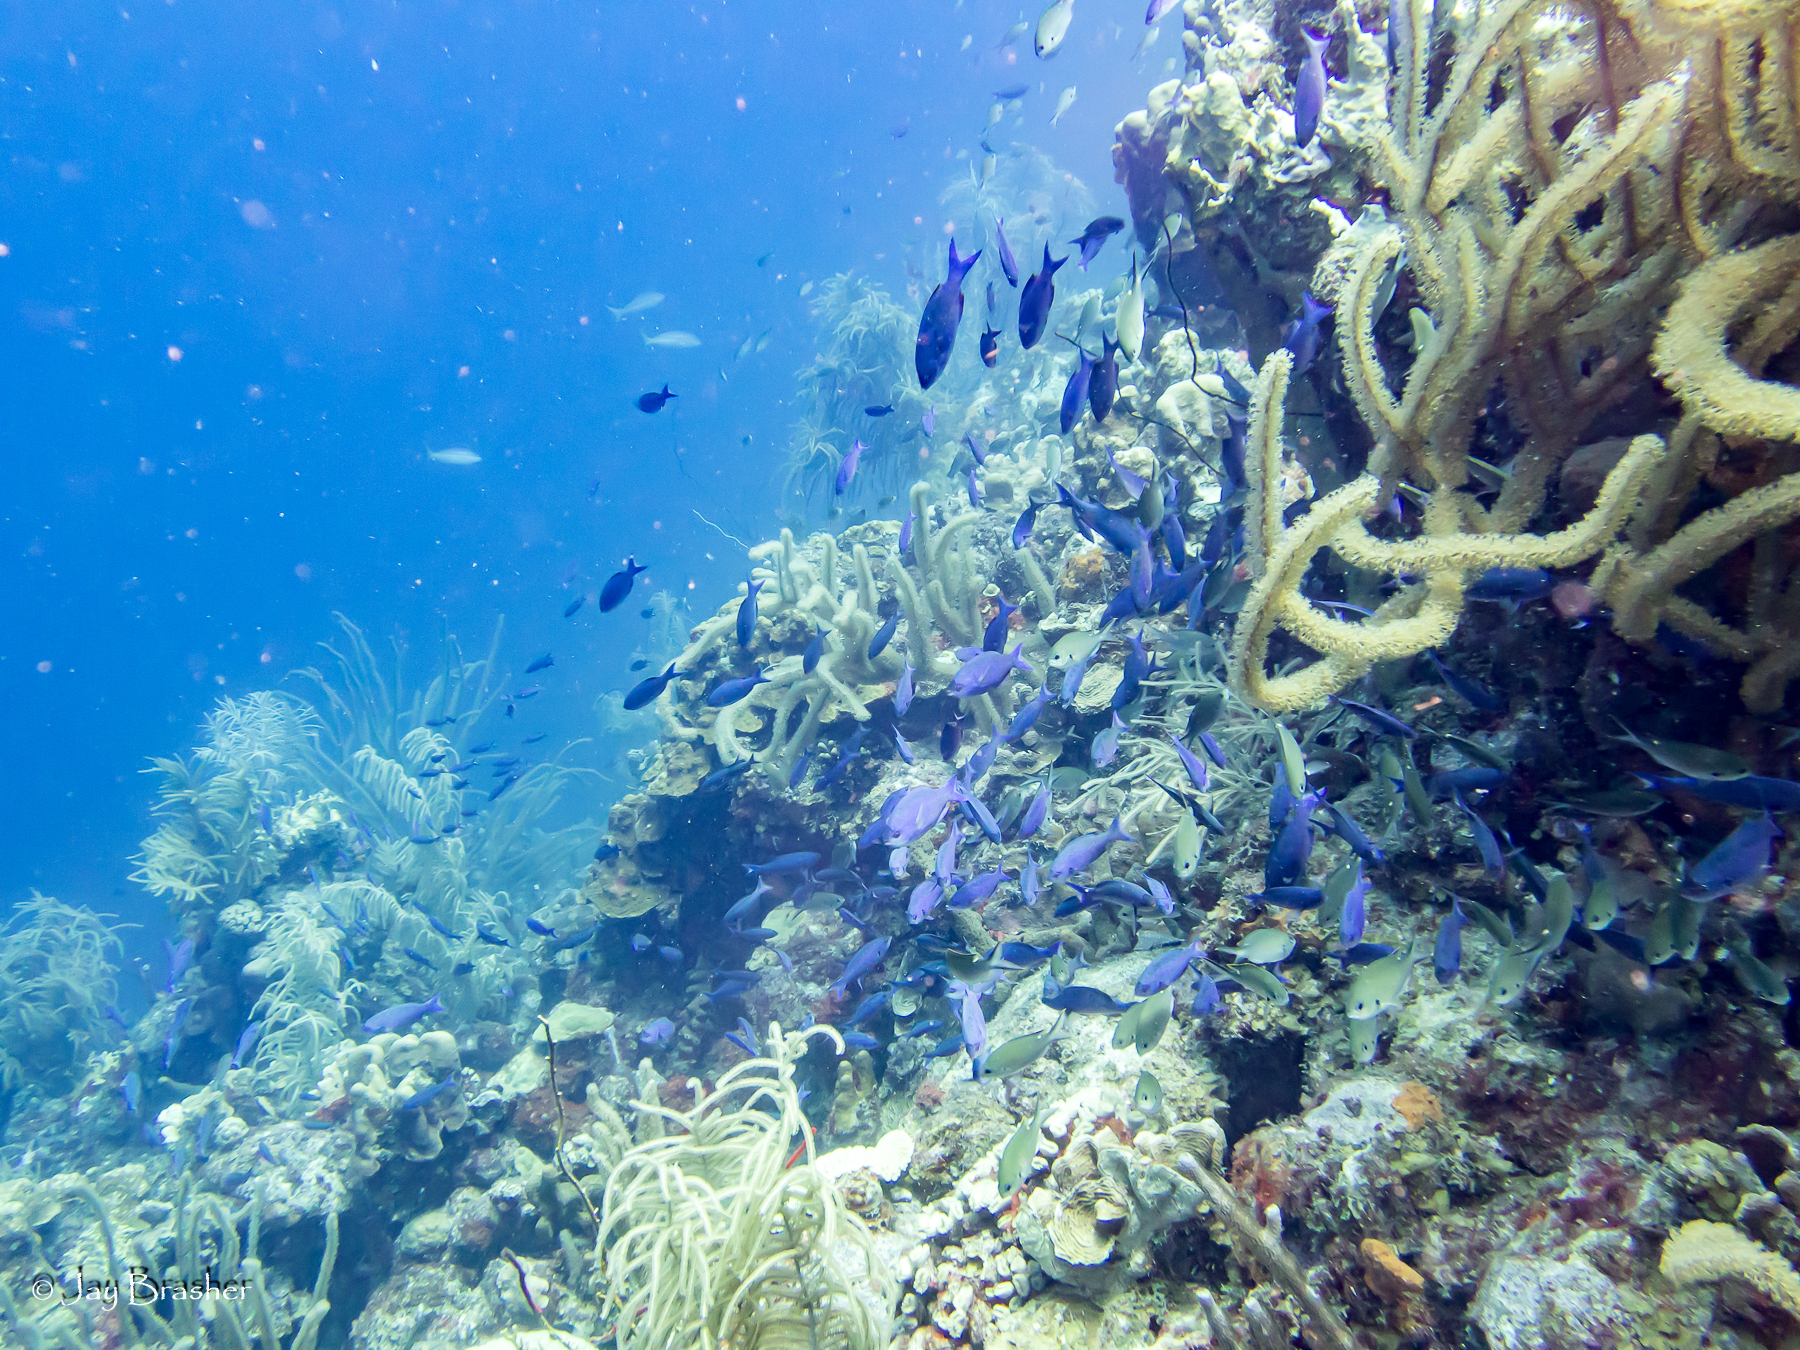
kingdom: Animalia
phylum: Chordata
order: Perciformes
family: Labridae
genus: Bodianus
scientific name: Bodianus
